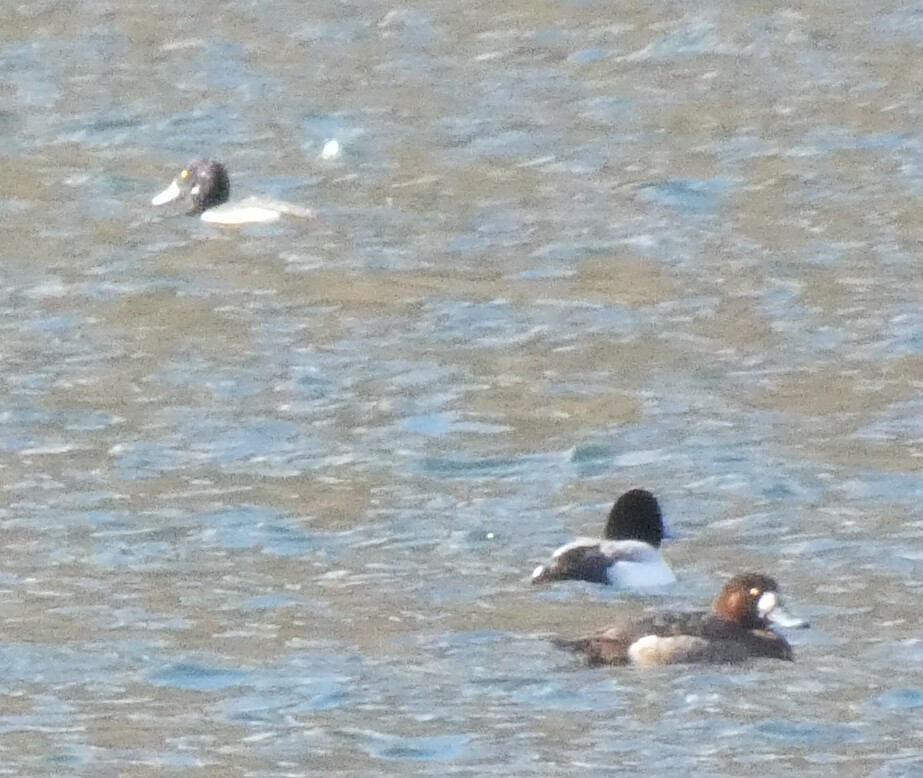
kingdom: Animalia
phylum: Chordata
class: Aves
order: Anseriformes
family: Anatidae
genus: Aythya
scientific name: Aythya marila
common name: Greater scaup
